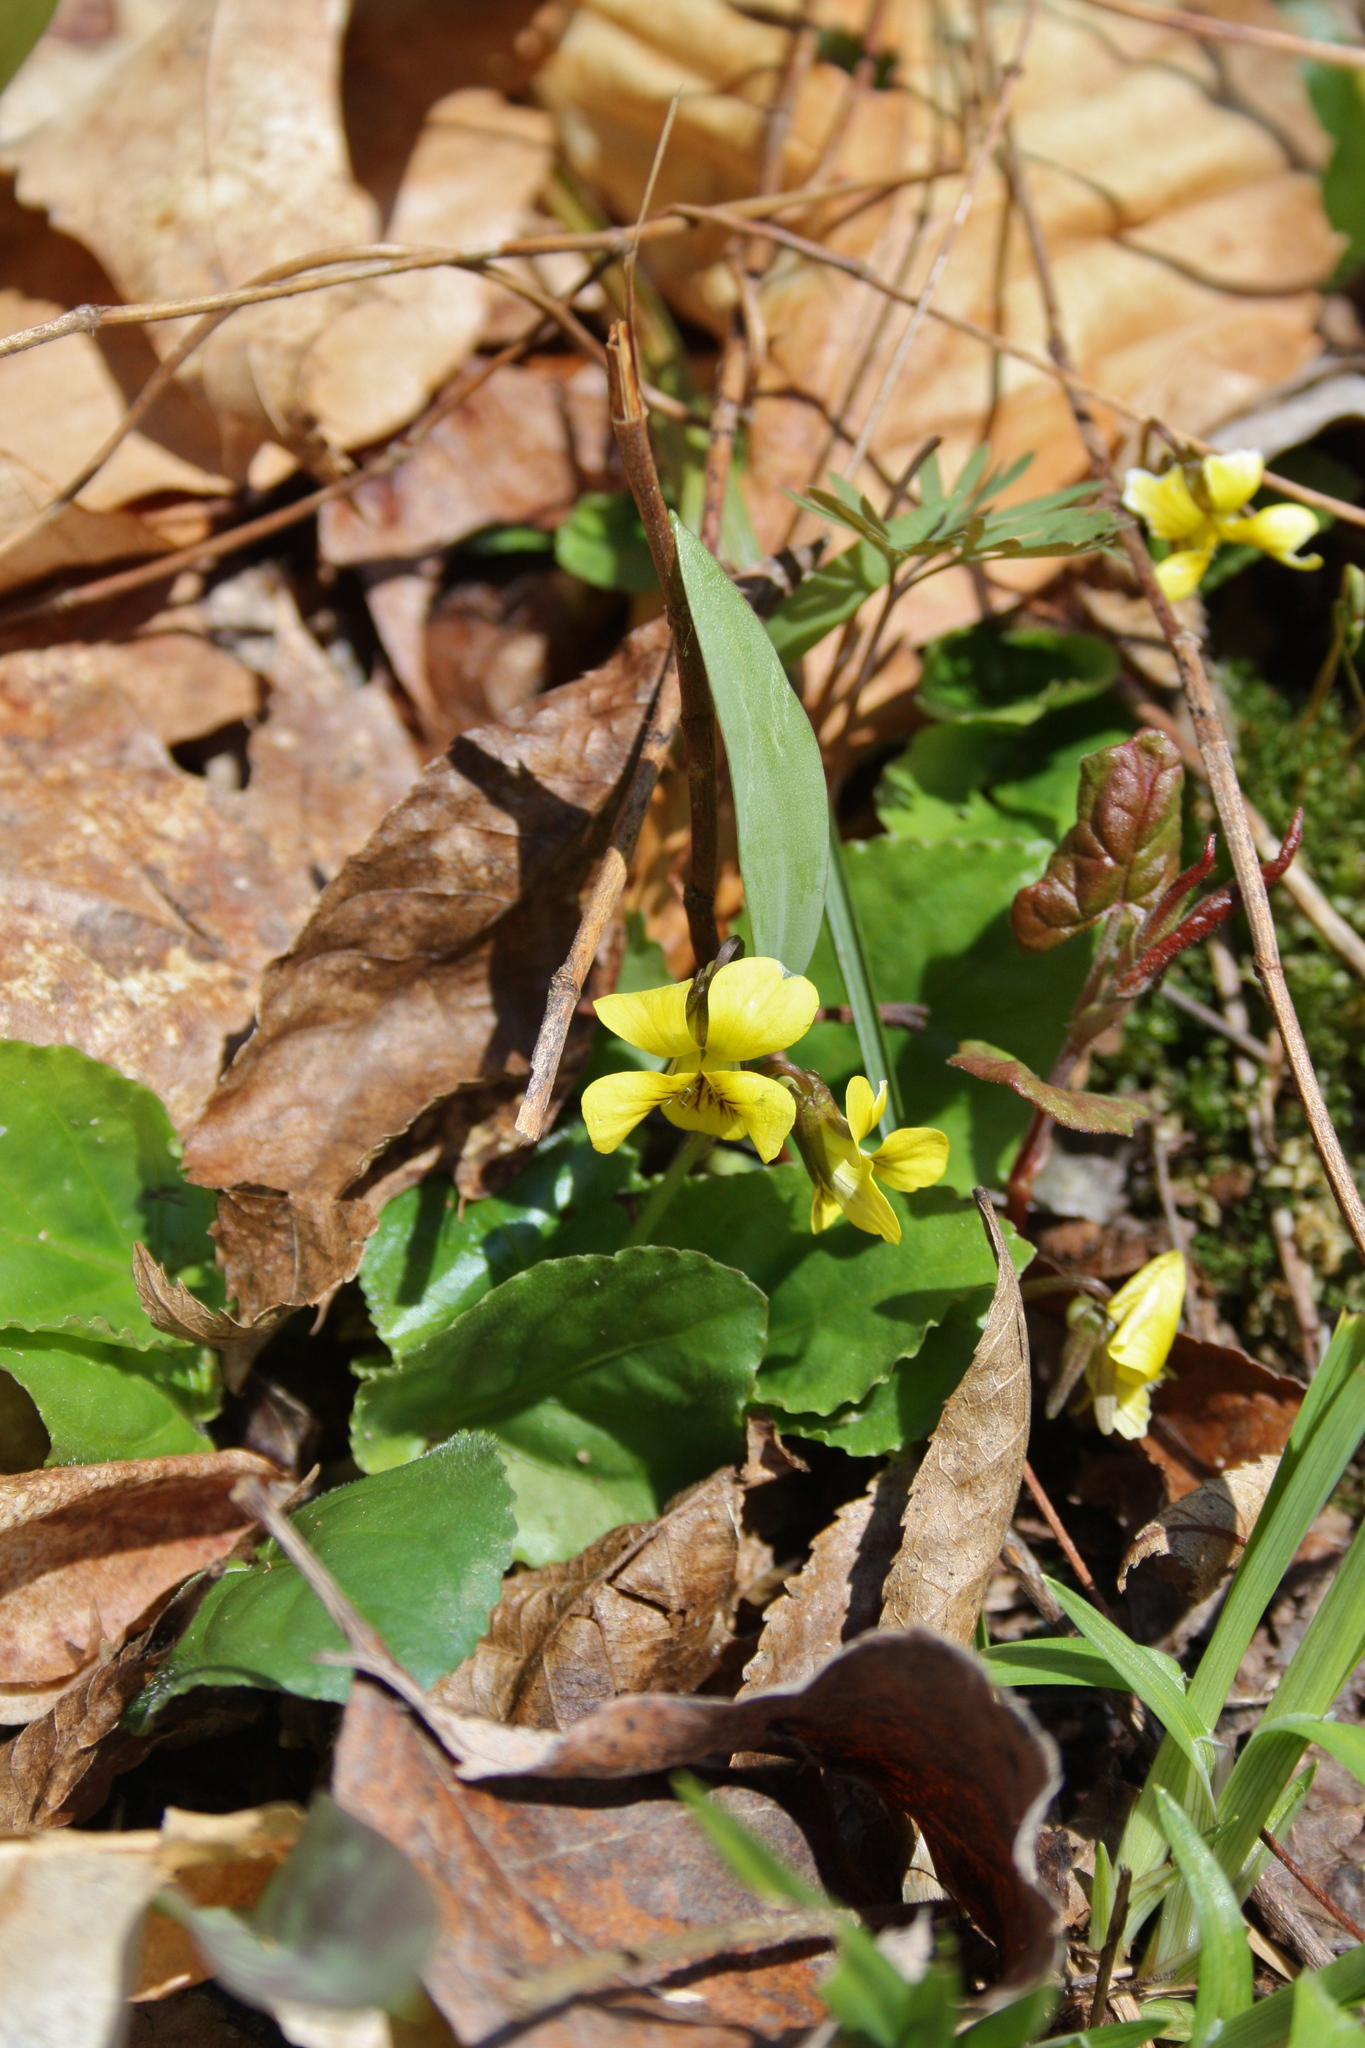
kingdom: Plantae
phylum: Tracheophyta
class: Magnoliopsida
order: Malpighiales
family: Violaceae
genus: Viola
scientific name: Viola rotundifolia
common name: Early yellow violet
